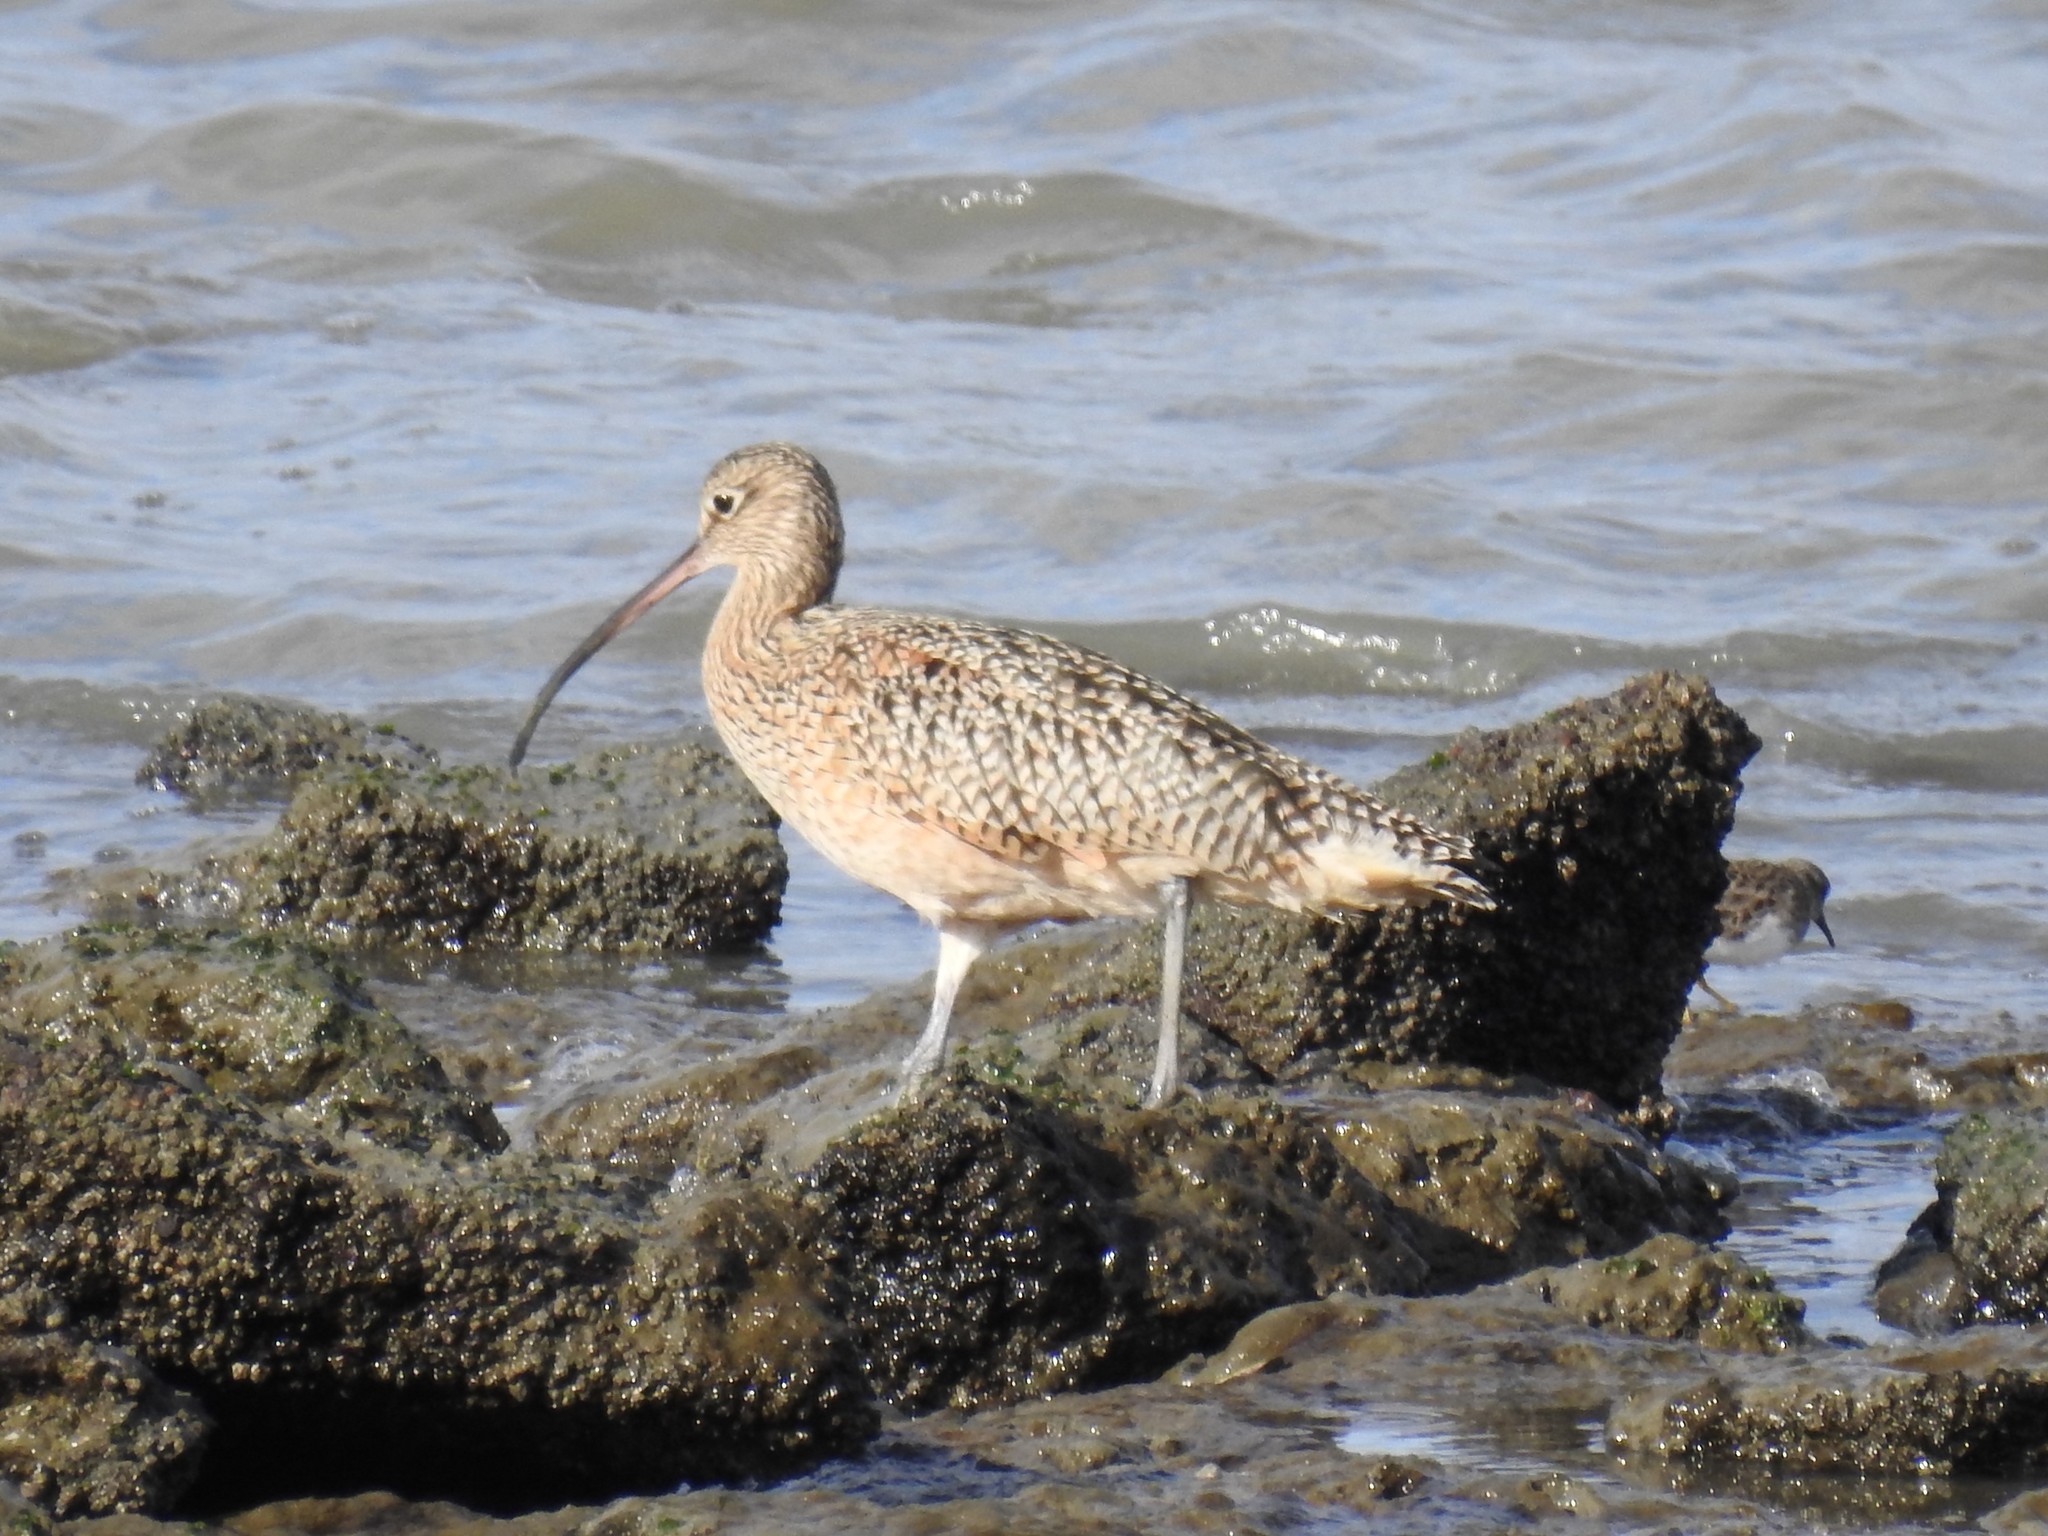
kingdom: Animalia
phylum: Chordata
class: Aves
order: Charadriiformes
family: Scolopacidae
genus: Numenius
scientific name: Numenius americanus
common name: Long-billed curlew
